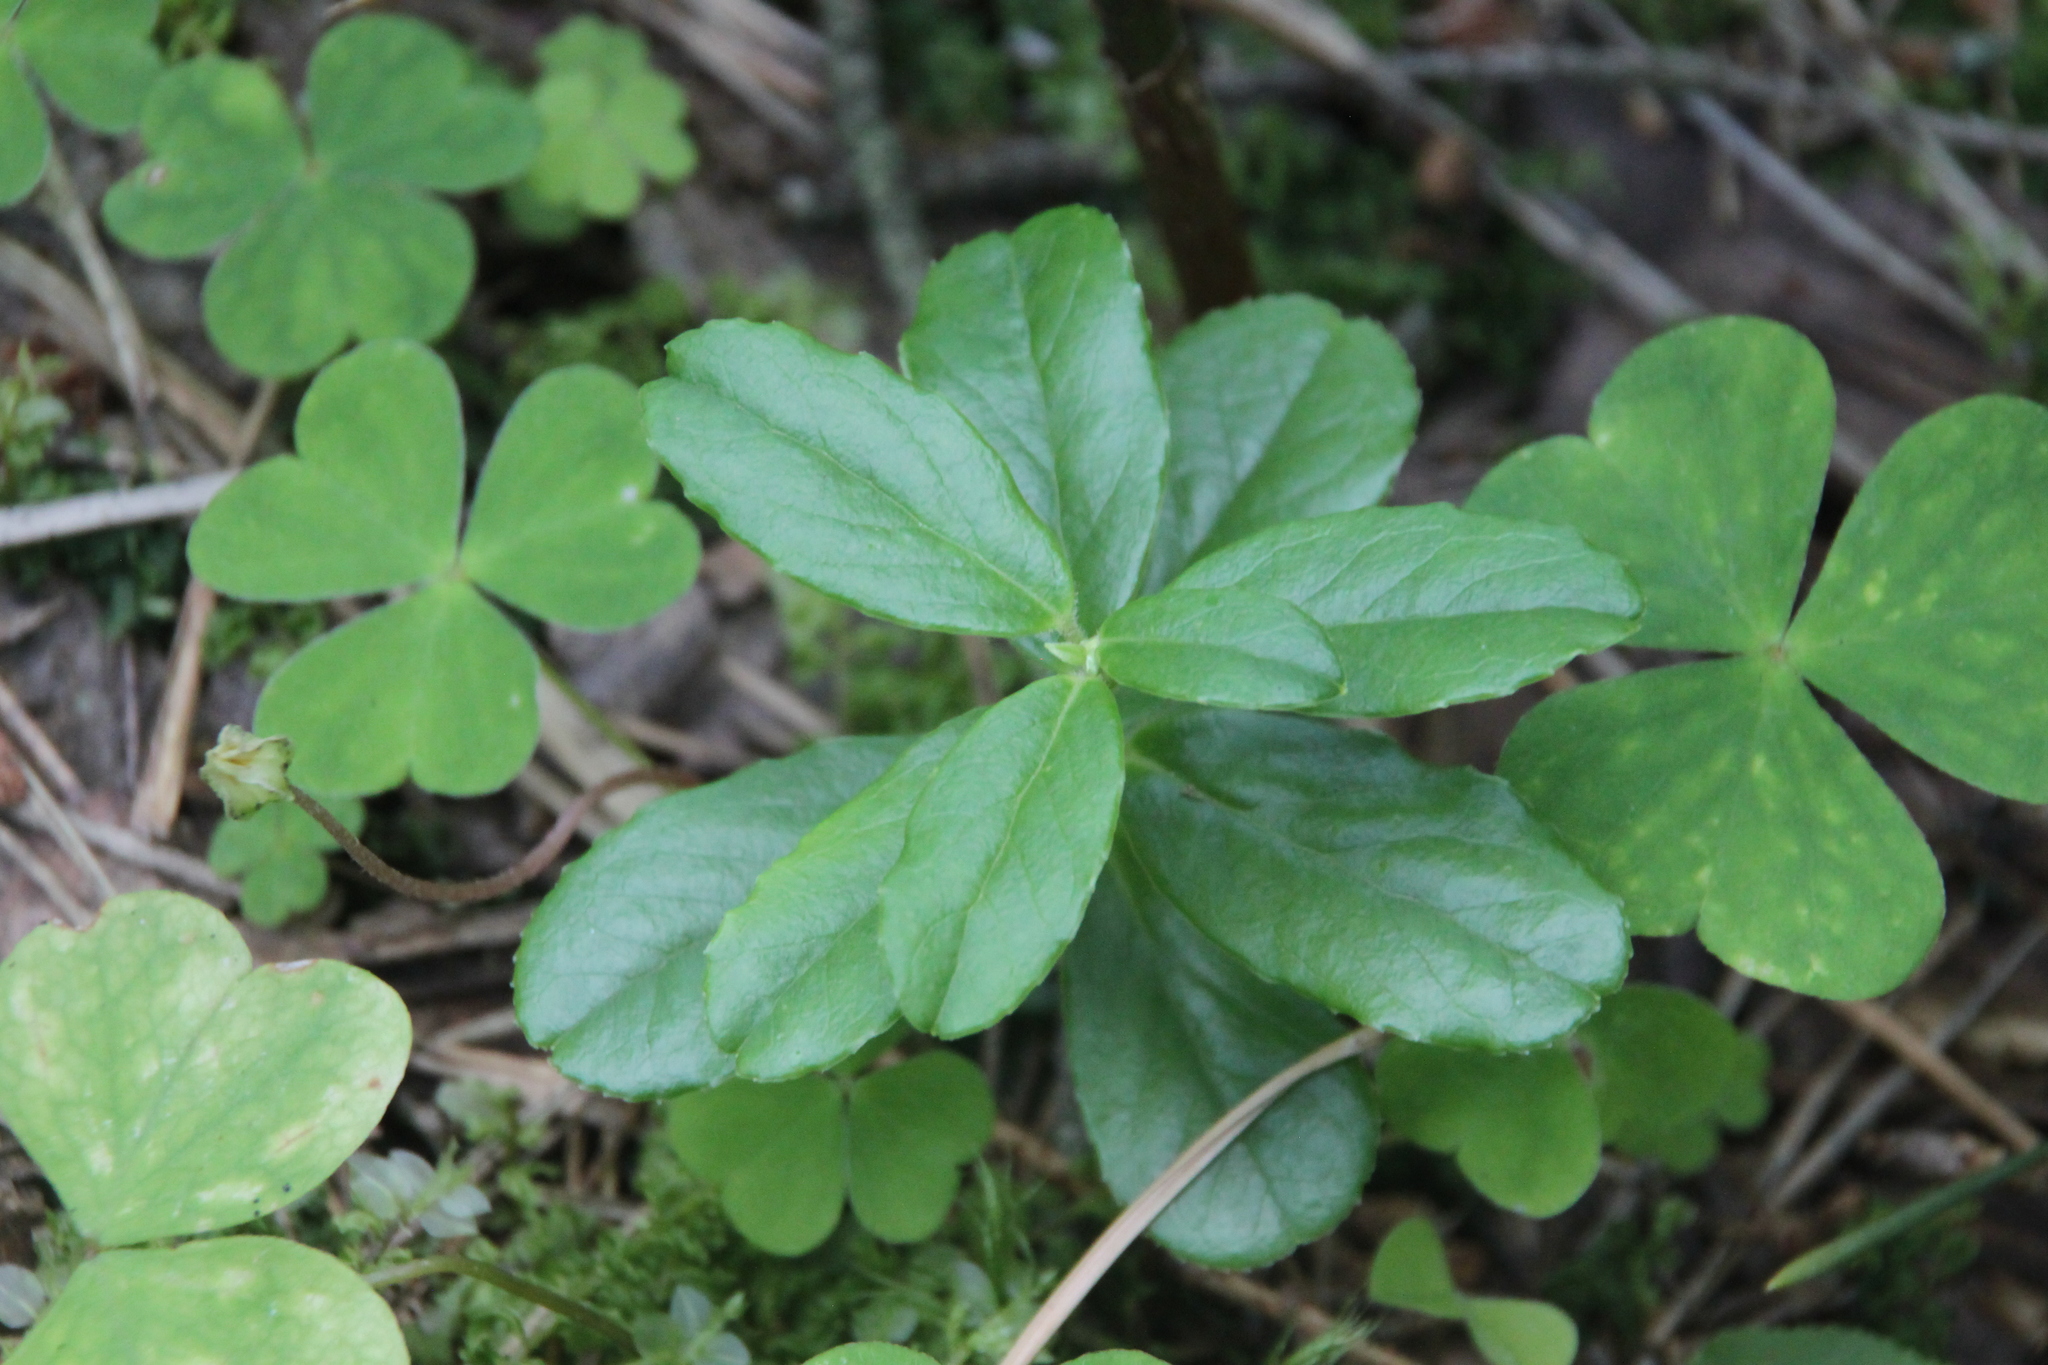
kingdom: Plantae
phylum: Tracheophyta
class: Magnoliopsida
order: Ericales
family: Ericaceae
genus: Vaccinium
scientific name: Vaccinium vitis-idaea
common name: Cowberry
